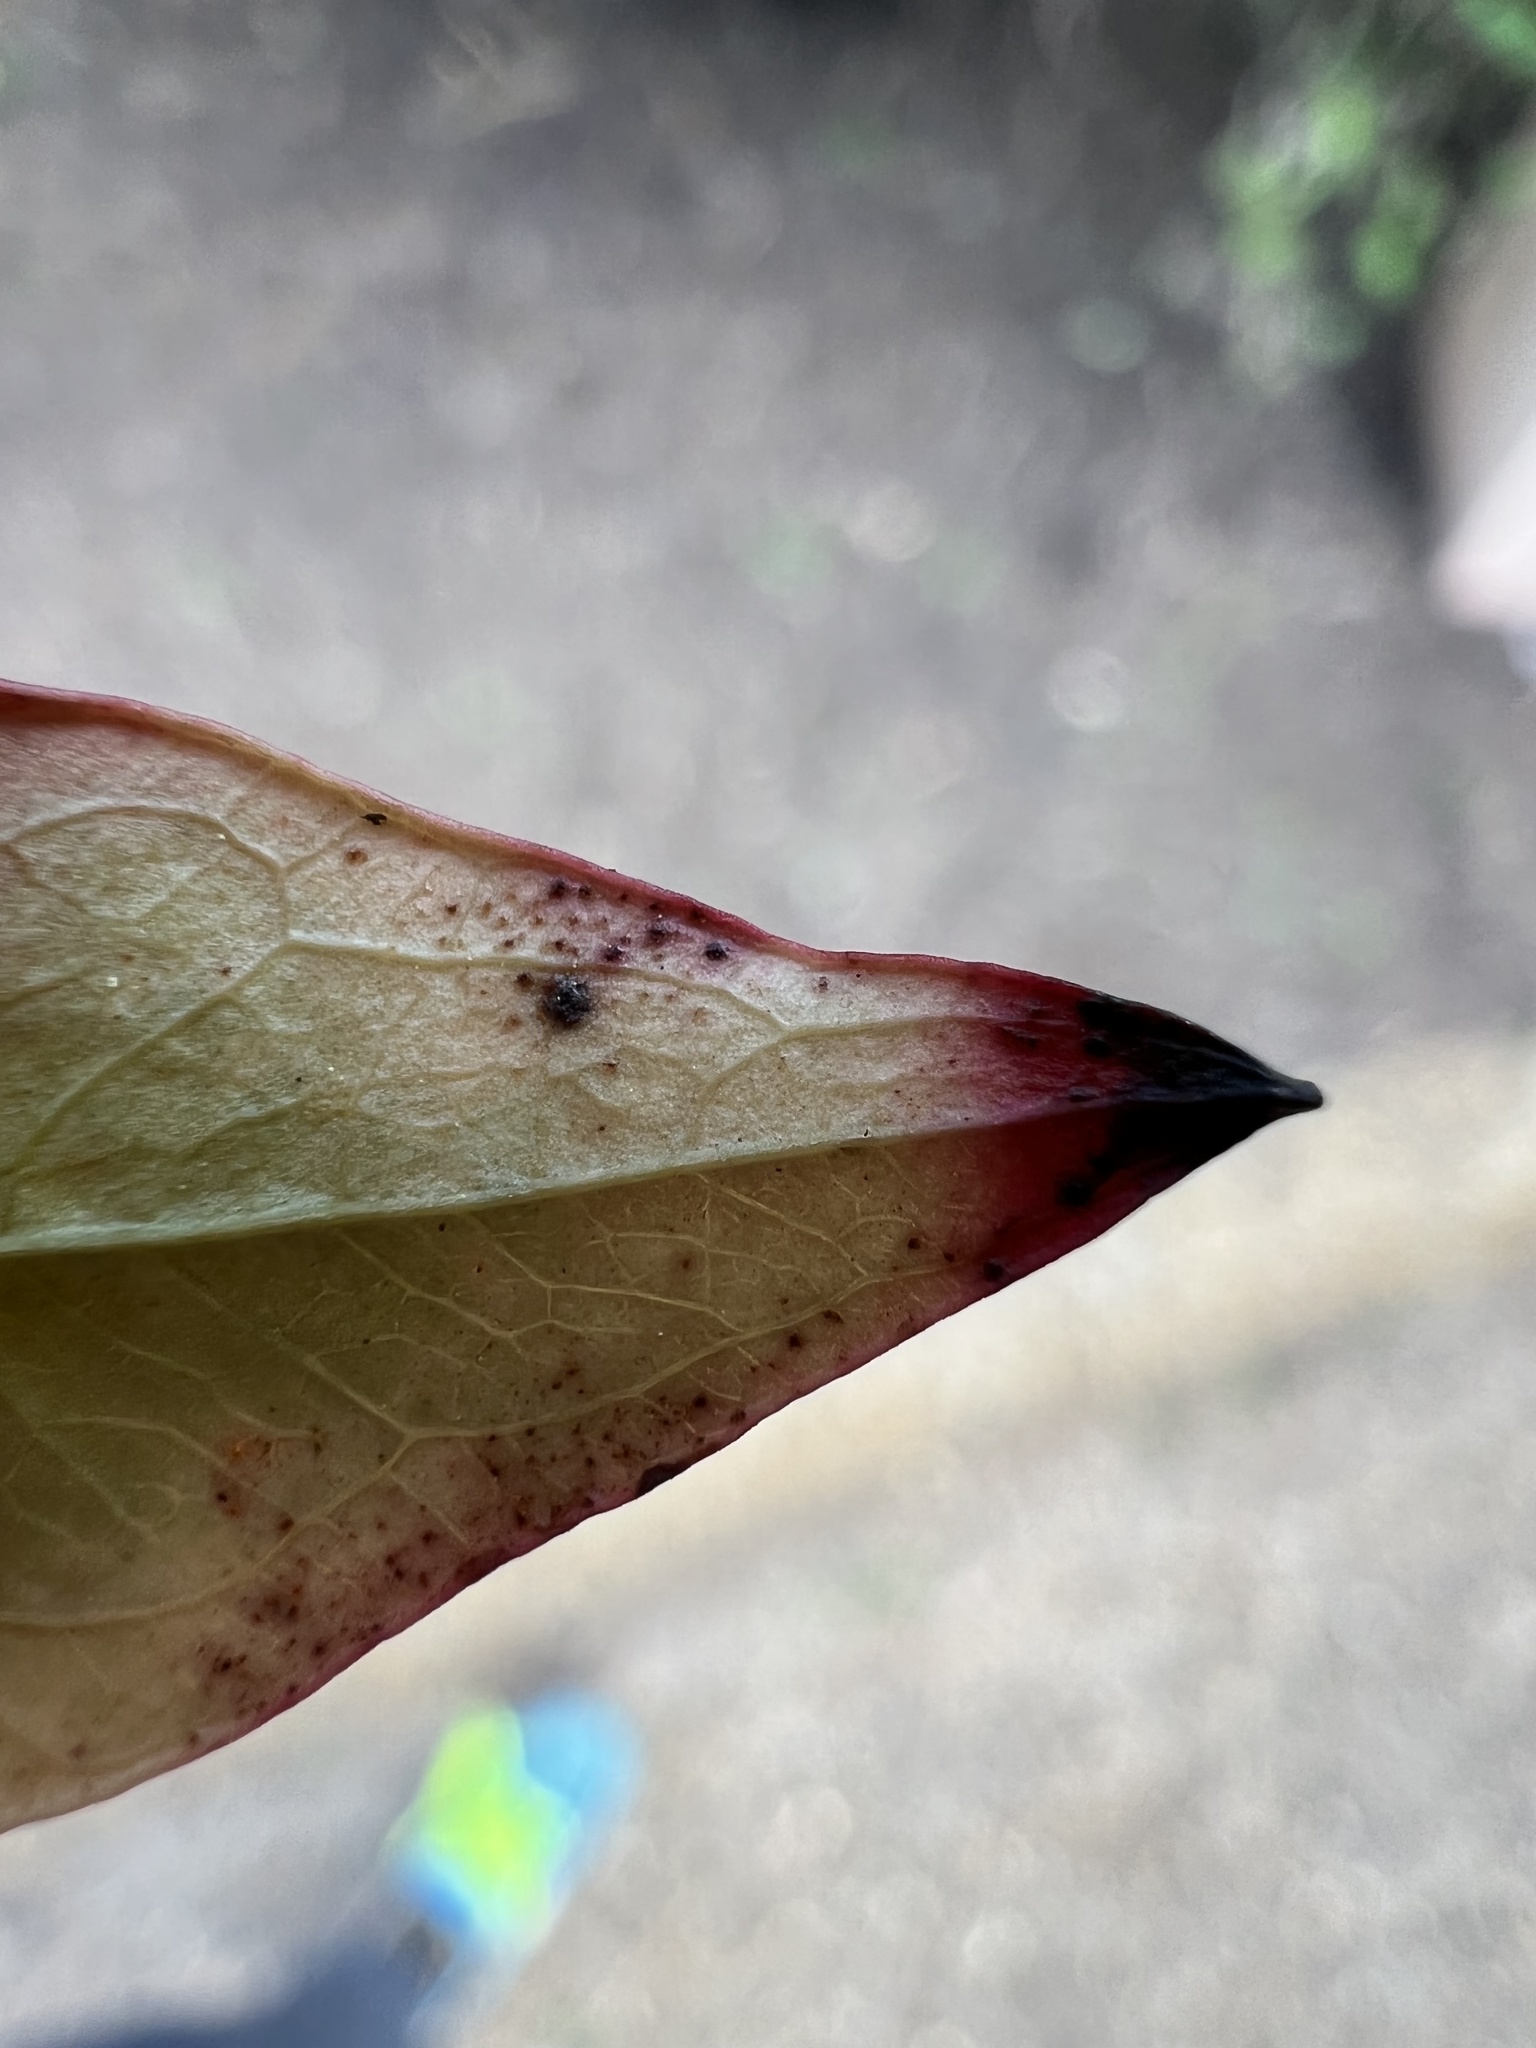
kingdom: Fungi
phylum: Ascomycota
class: Dothideomycetes
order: Mycosphaerellales
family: Mycosphaerellaceae
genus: Pseudocercospora
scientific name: Pseudocercospora nandinae
